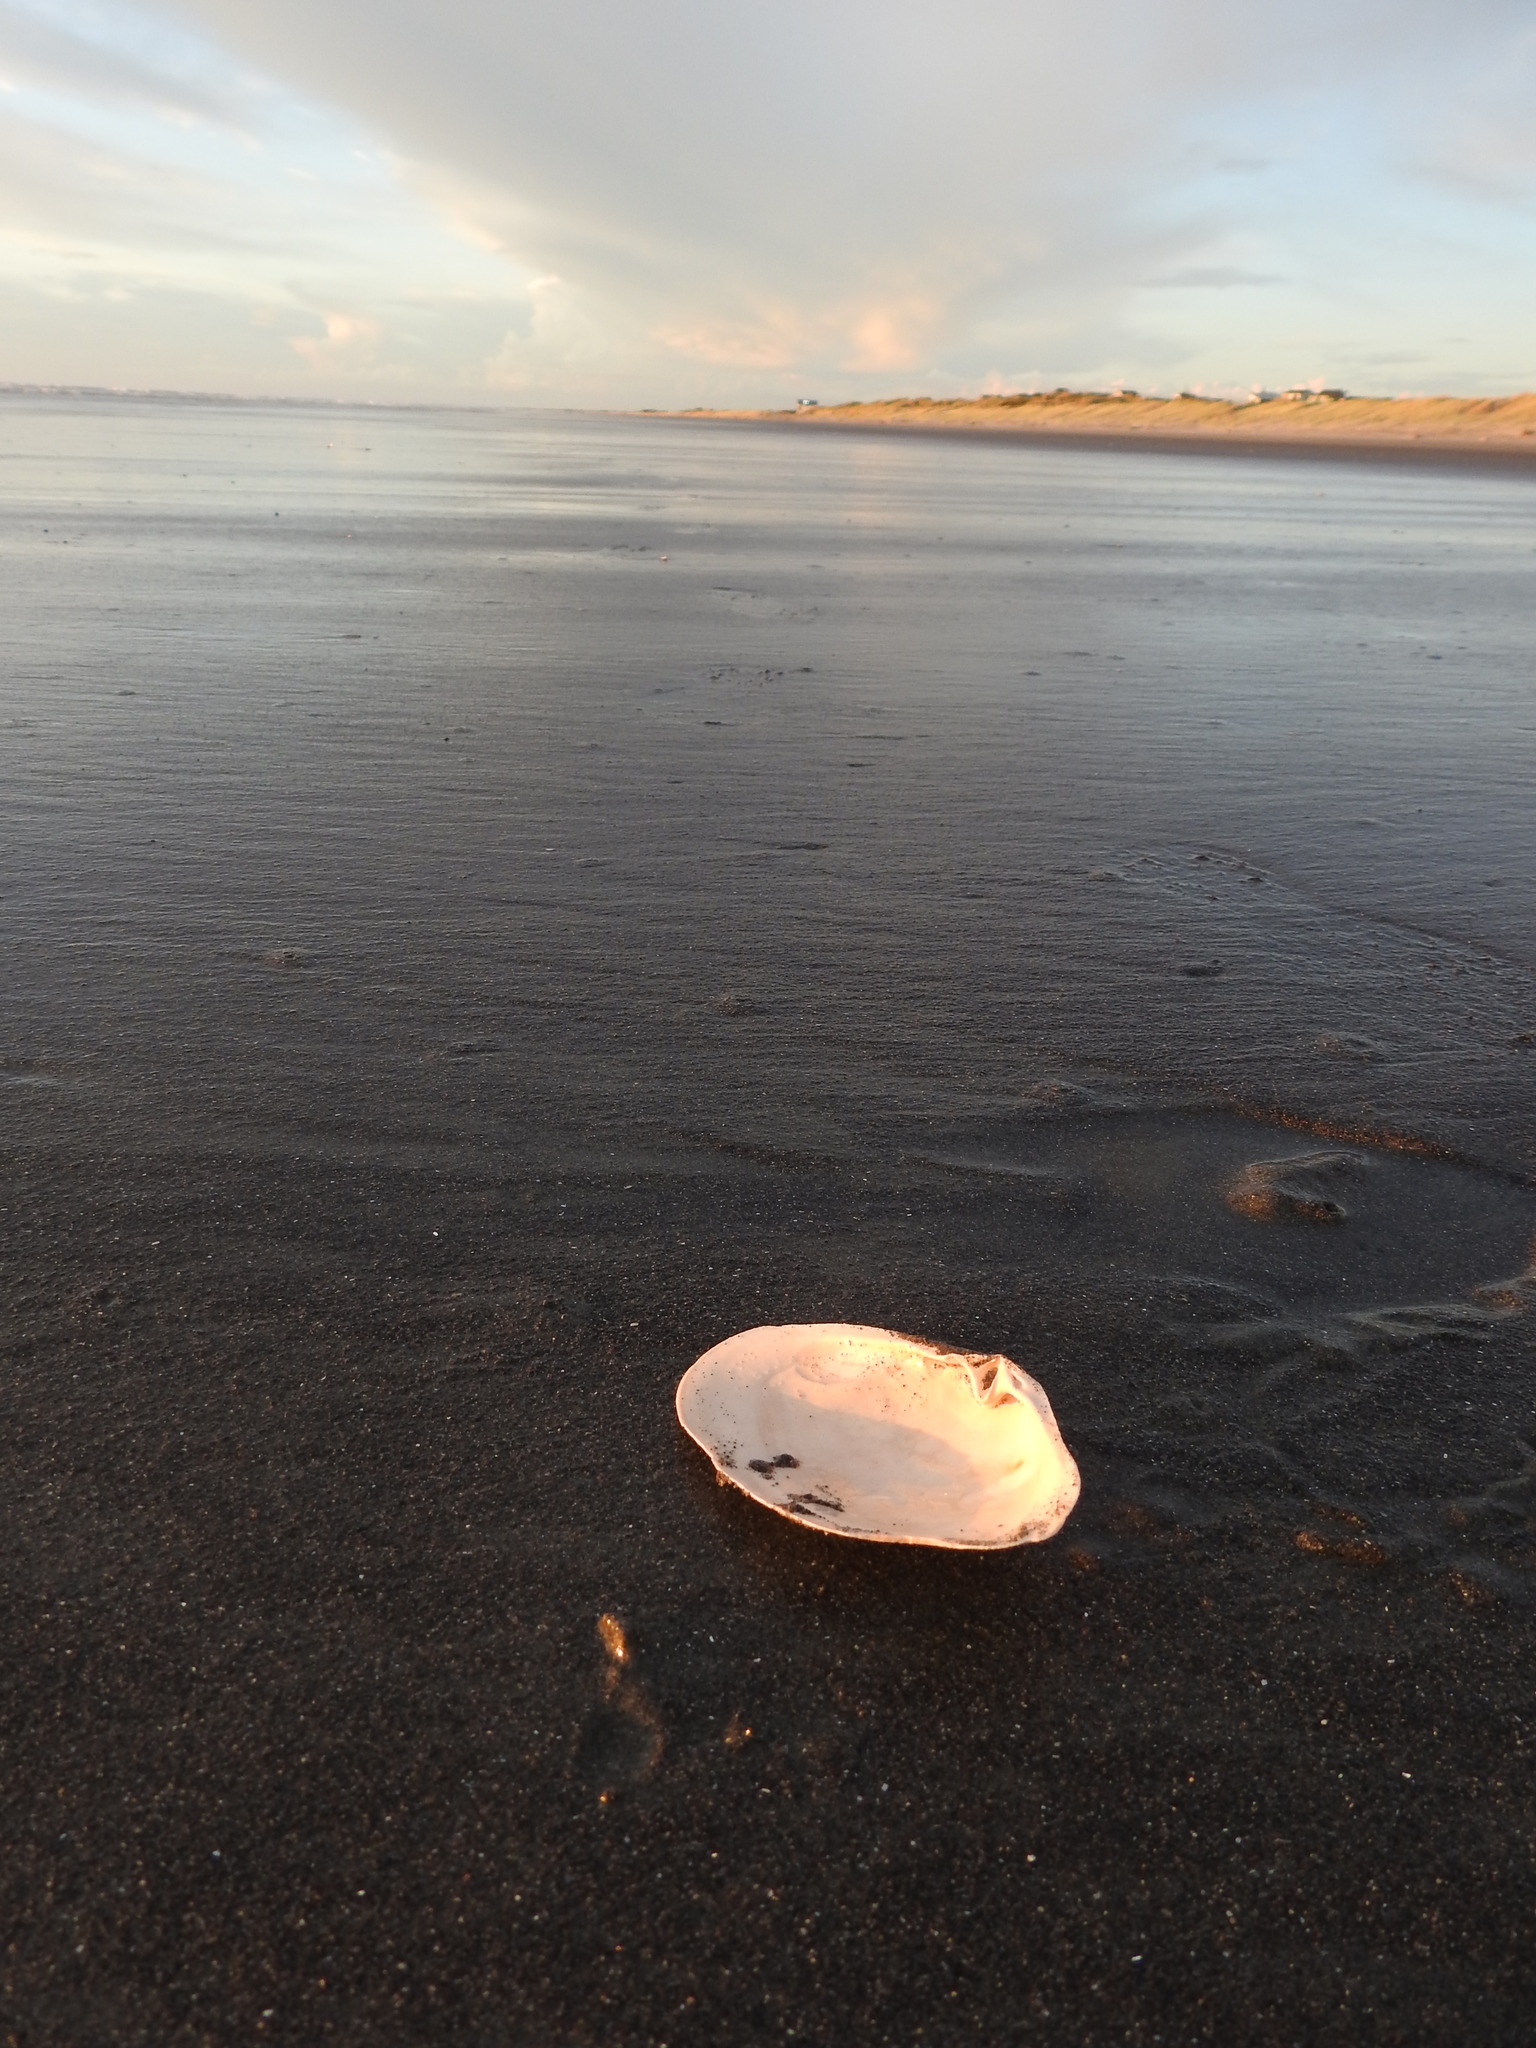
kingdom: Animalia
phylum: Mollusca
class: Bivalvia
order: Venerida
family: Mesodesmatidae
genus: Paphies
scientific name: Paphies ventricosa
